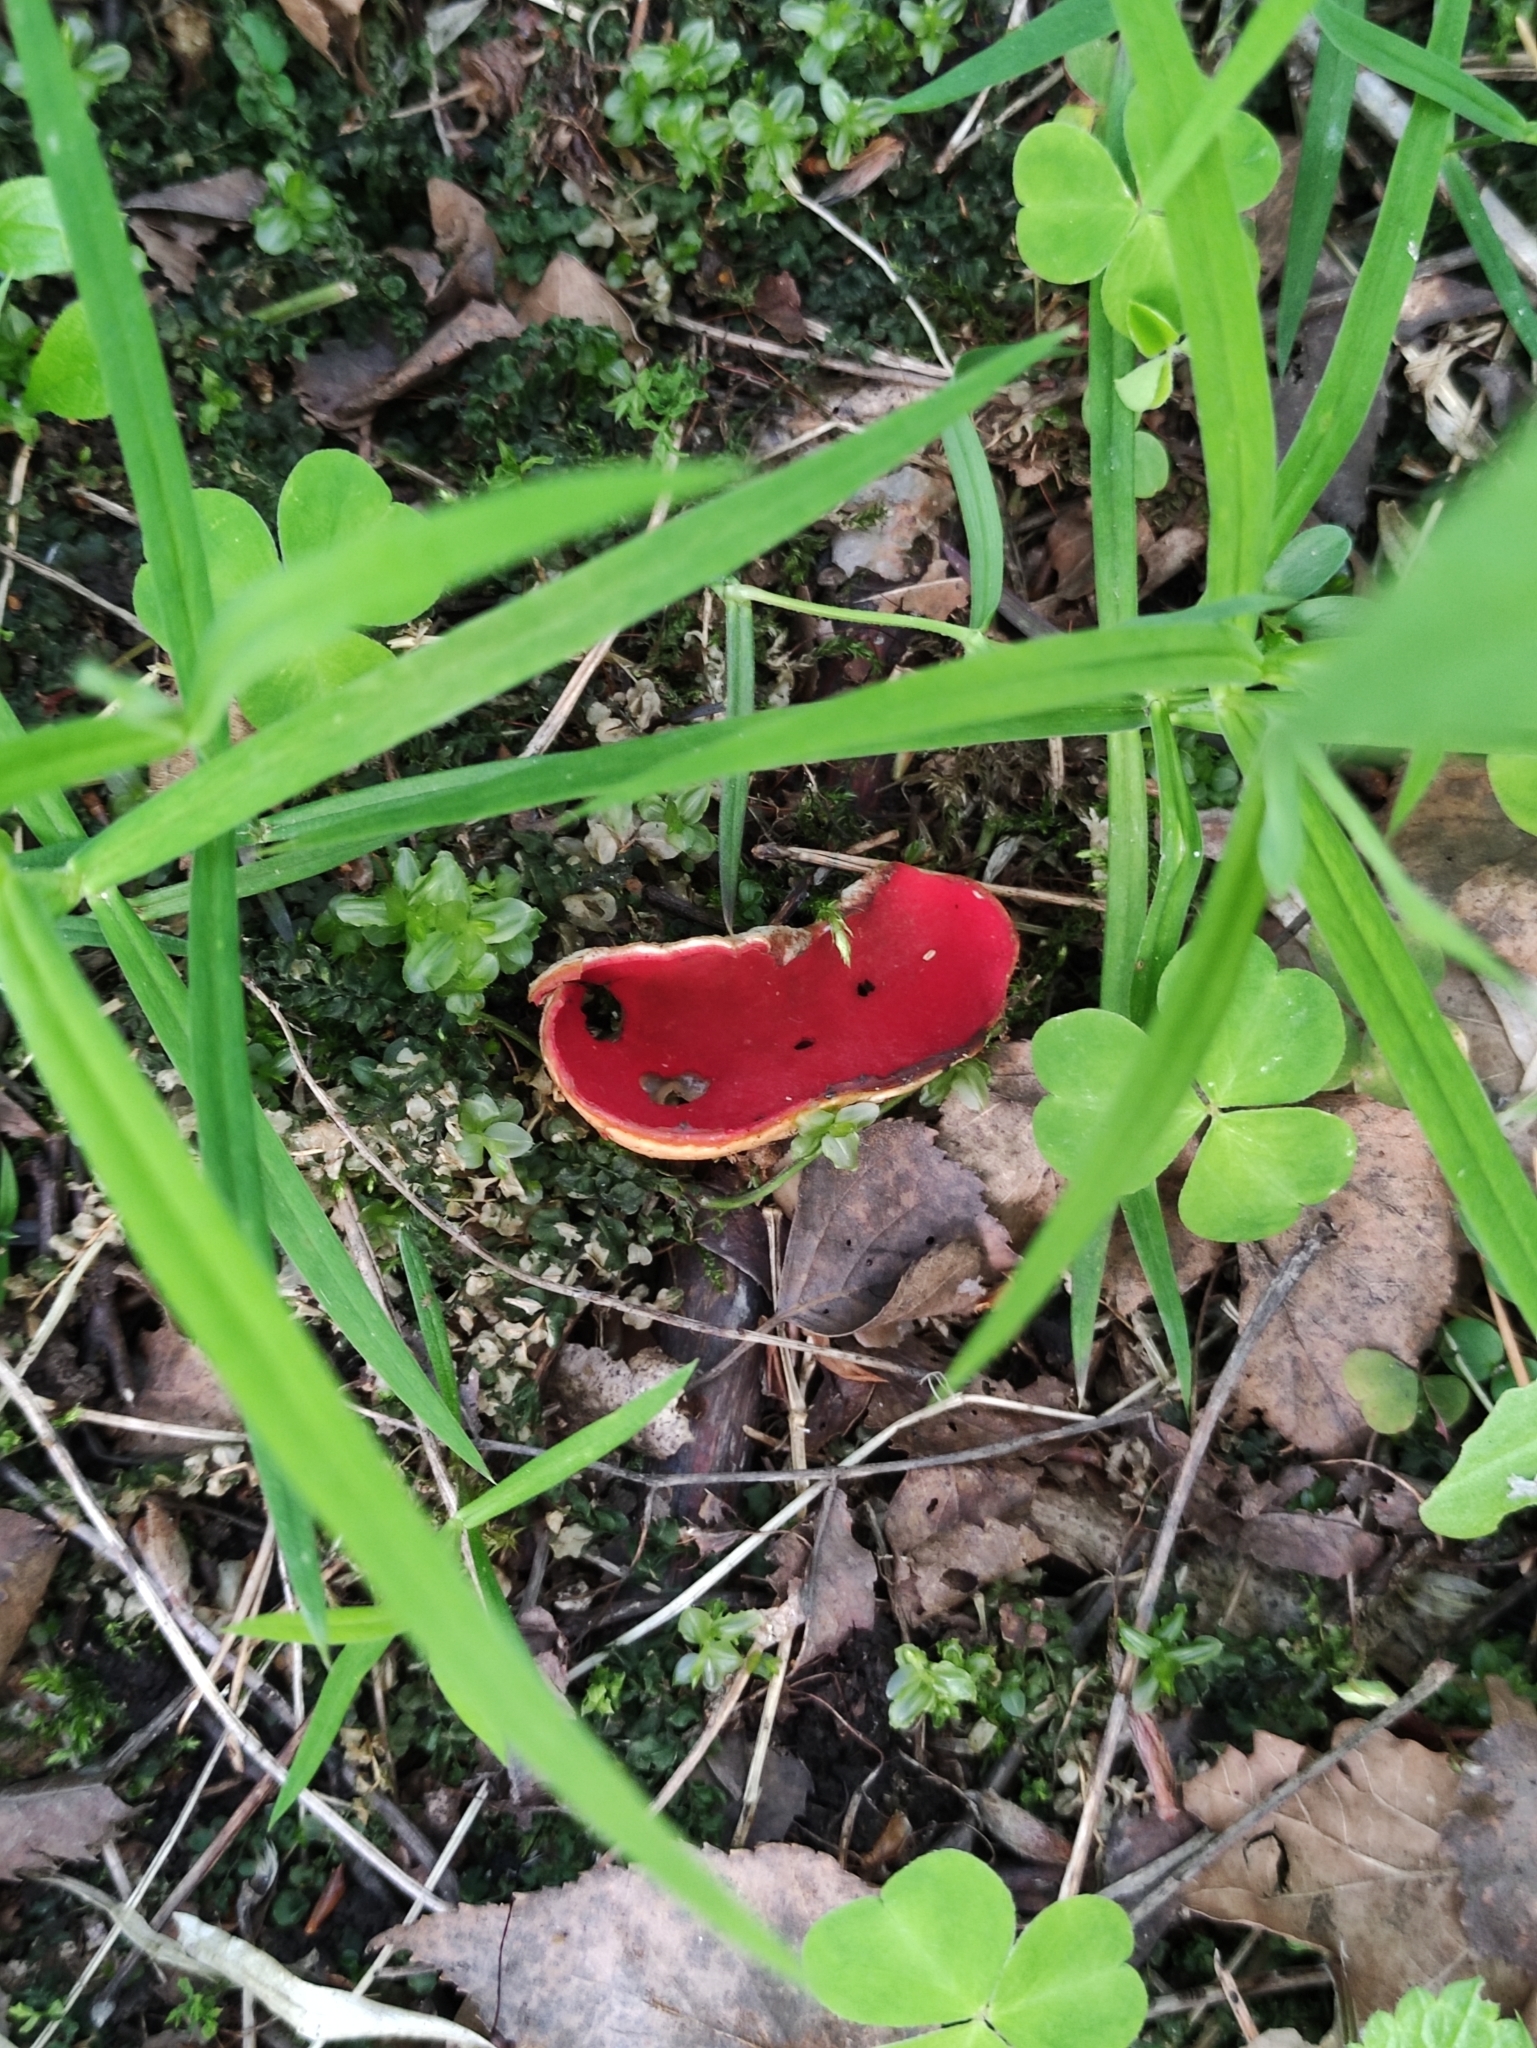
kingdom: Fungi
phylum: Ascomycota
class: Pezizomycetes
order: Pezizales
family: Sarcoscyphaceae
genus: Sarcoscypha
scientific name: Sarcoscypha austriaca
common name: Scarlet elfcup
